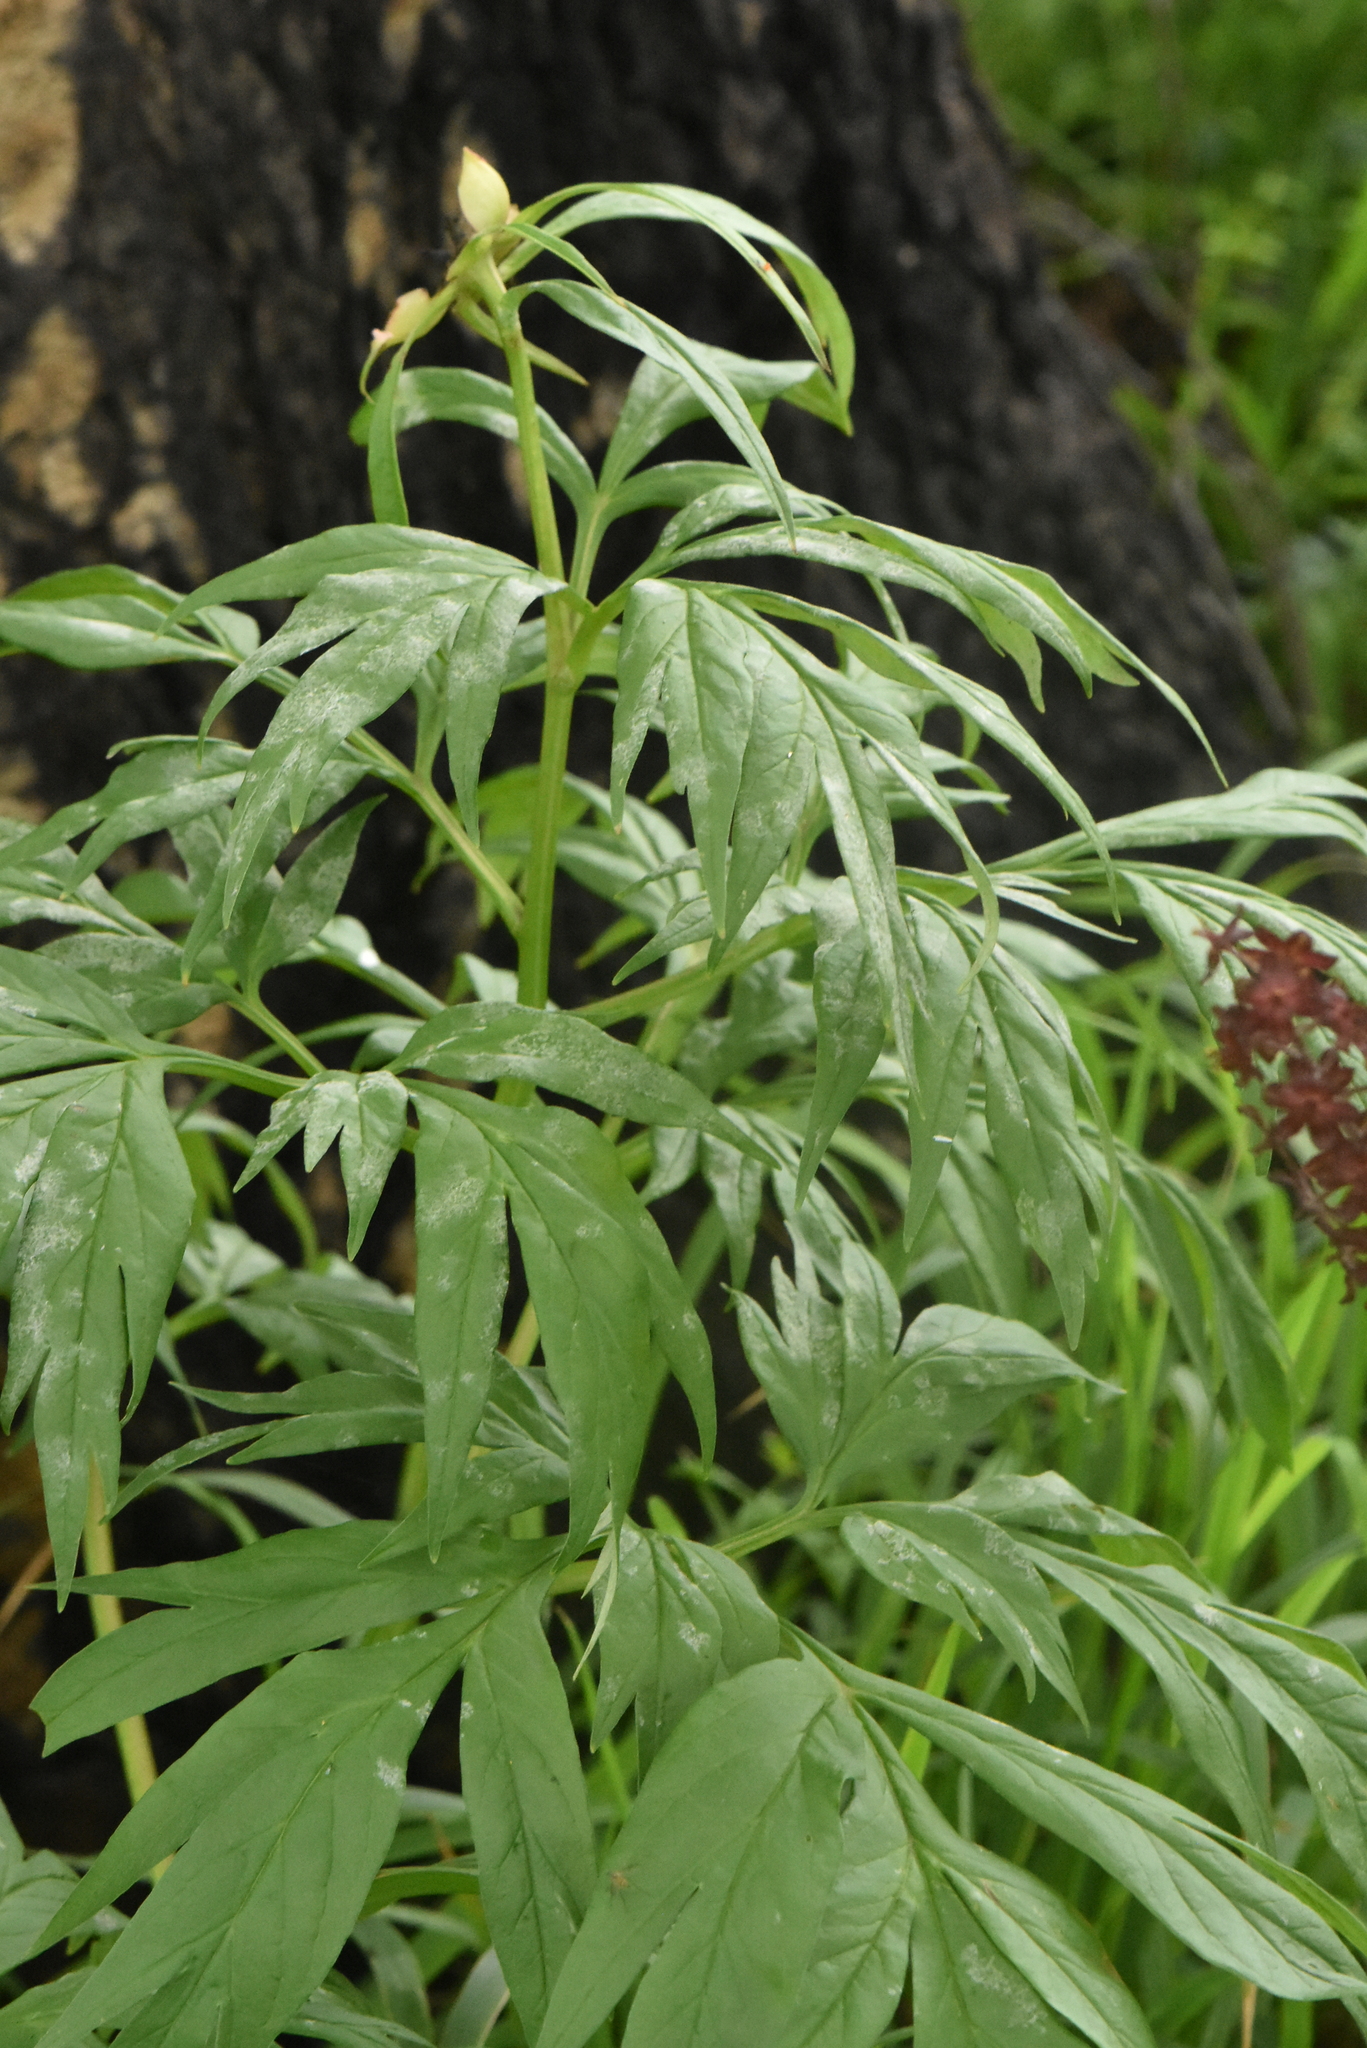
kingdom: Plantae
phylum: Tracheophyta
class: Magnoliopsida
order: Saxifragales
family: Paeoniaceae
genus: Paeonia
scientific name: Paeonia anomala
